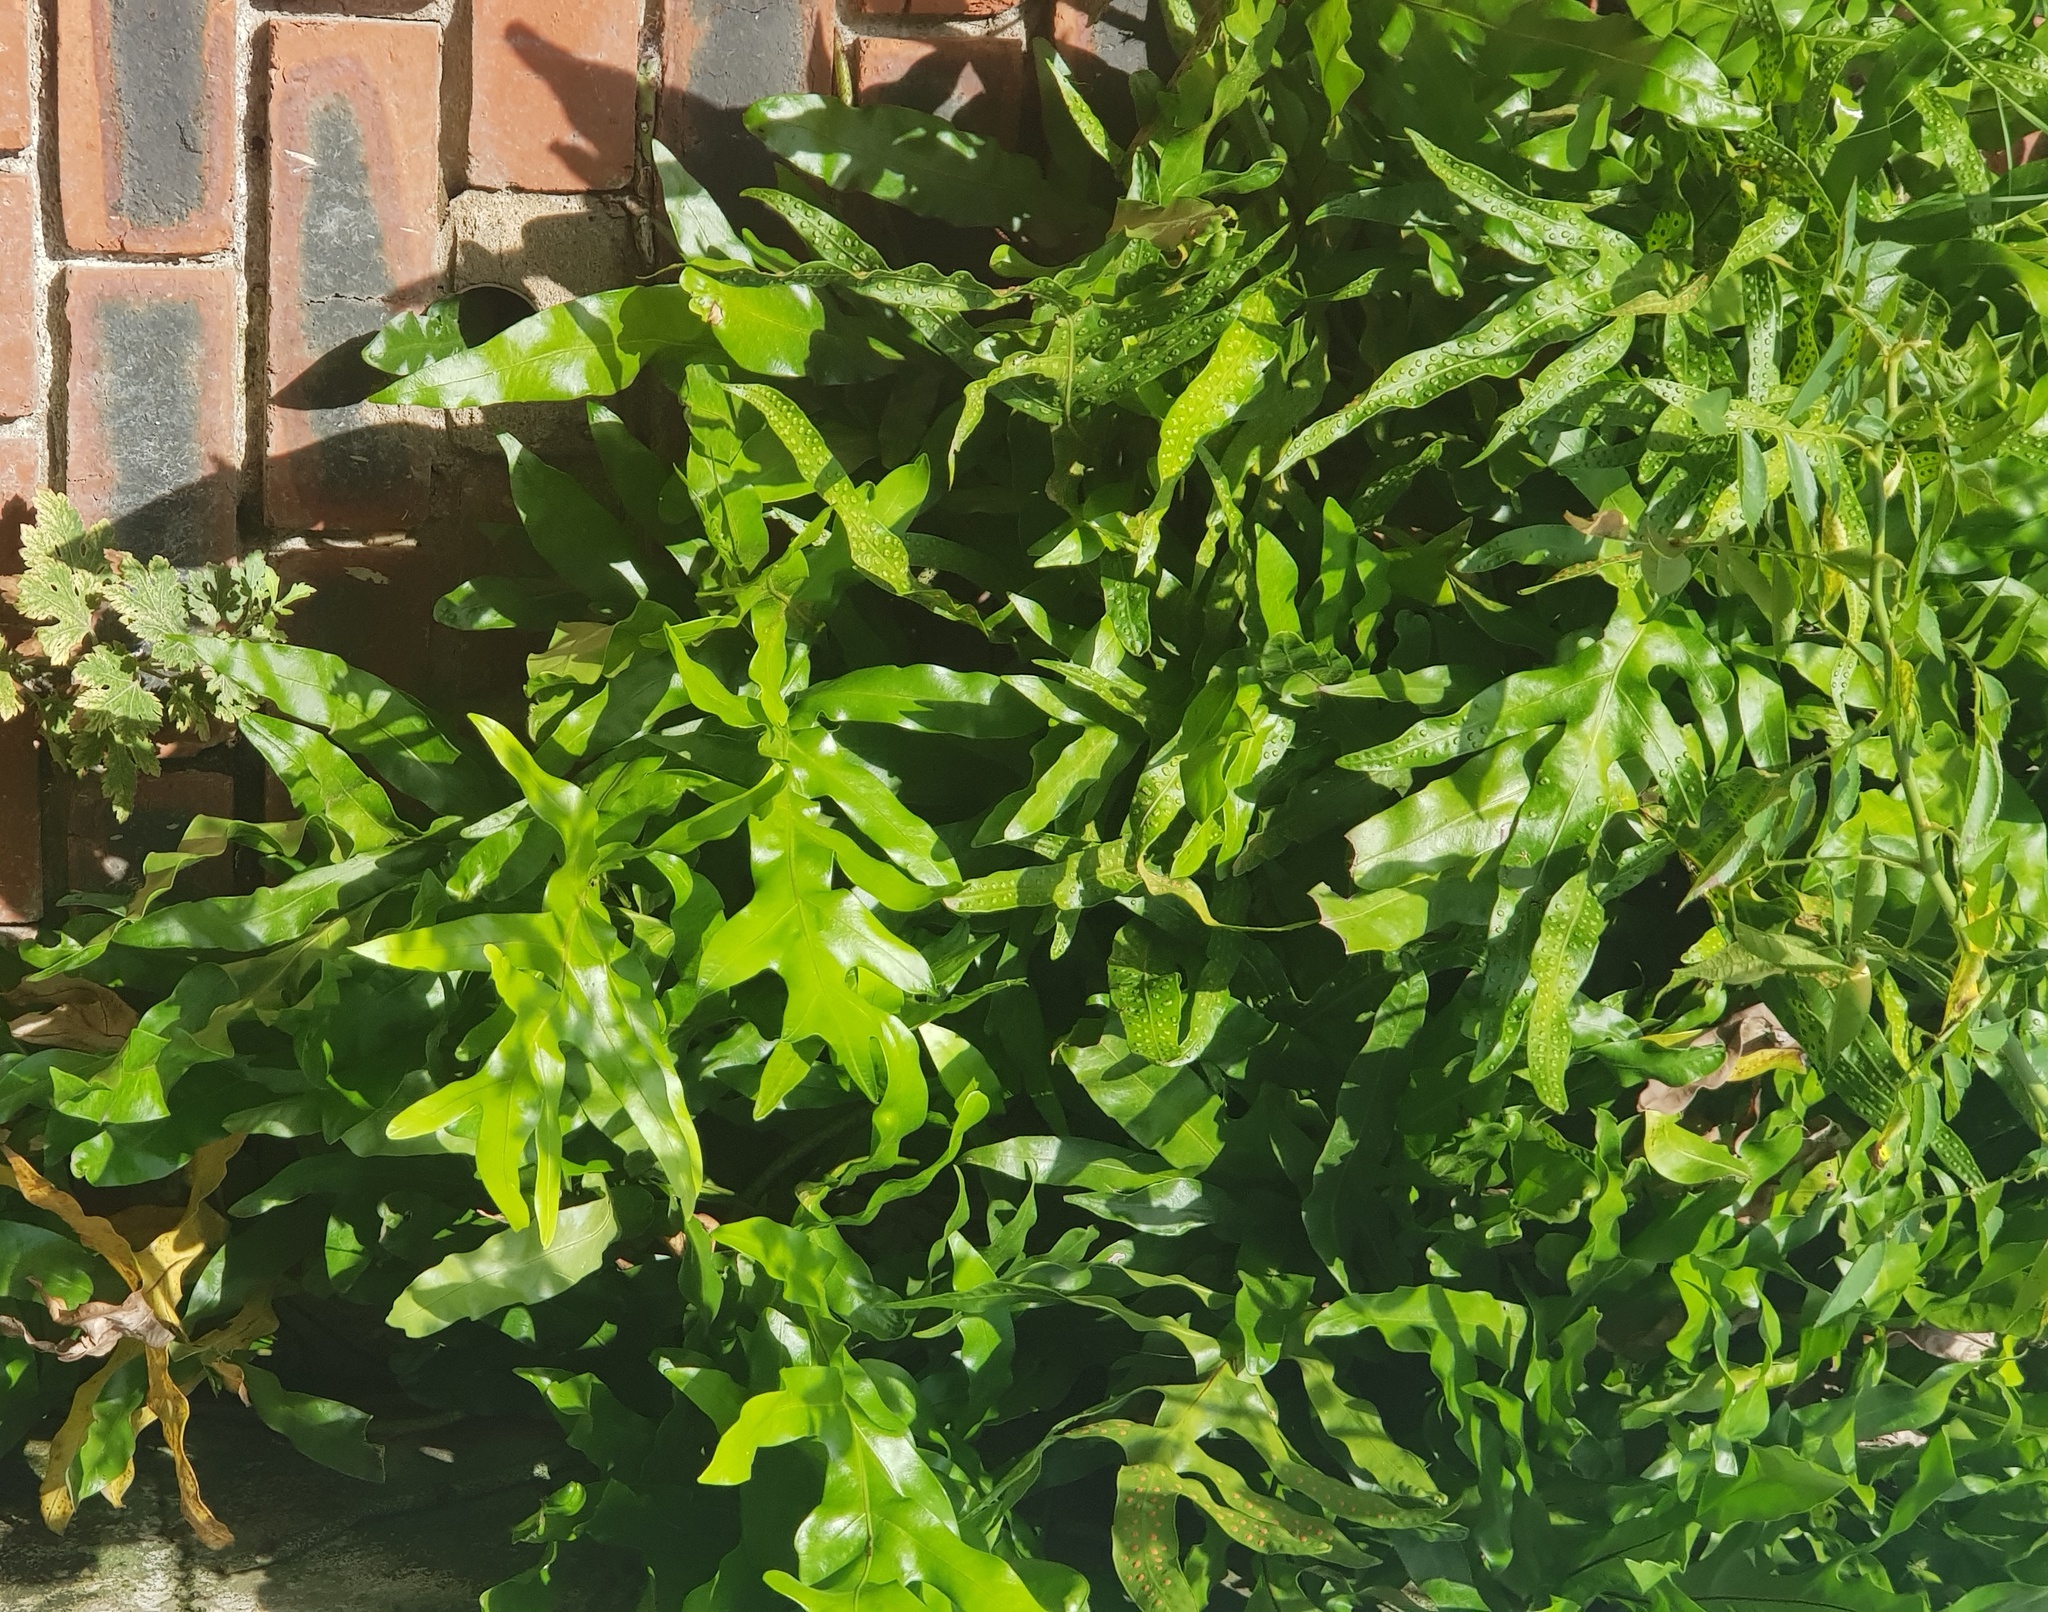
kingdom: Plantae
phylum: Tracheophyta
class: Polypodiopsida
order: Polypodiales
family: Polypodiaceae
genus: Lecanopteris
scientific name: Lecanopteris pustulata
